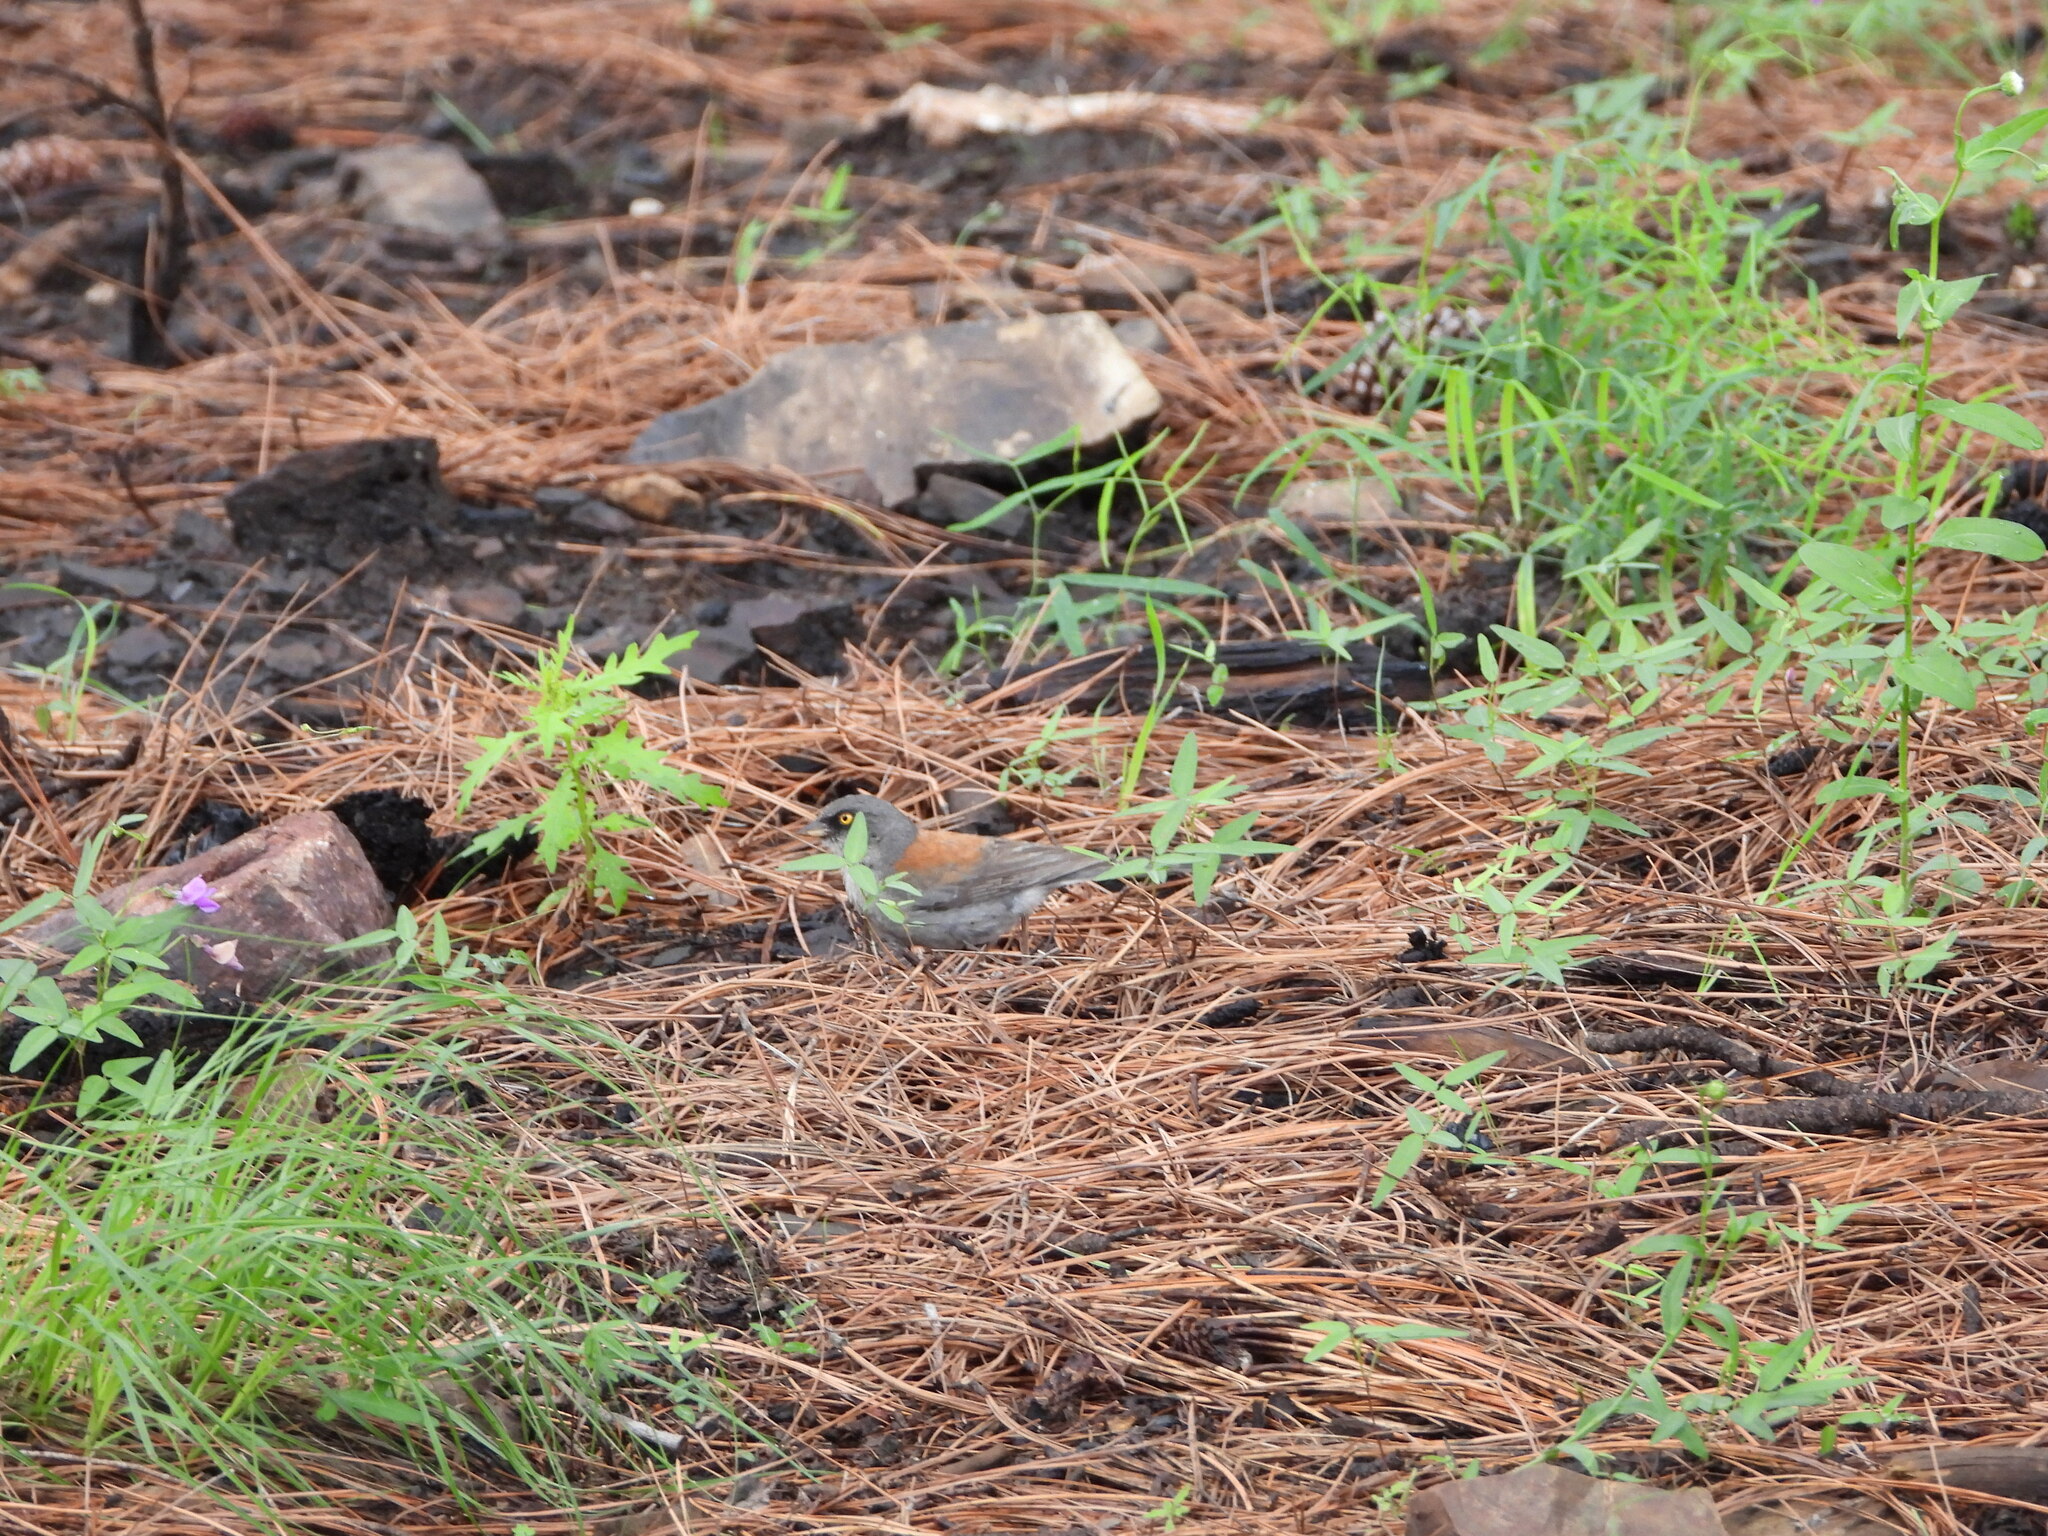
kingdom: Animalia
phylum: Chordata
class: Aves
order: Passeriformes
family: Passerellidae
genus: Junco
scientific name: Junco phaeonotus
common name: Yellow-eyed junco
